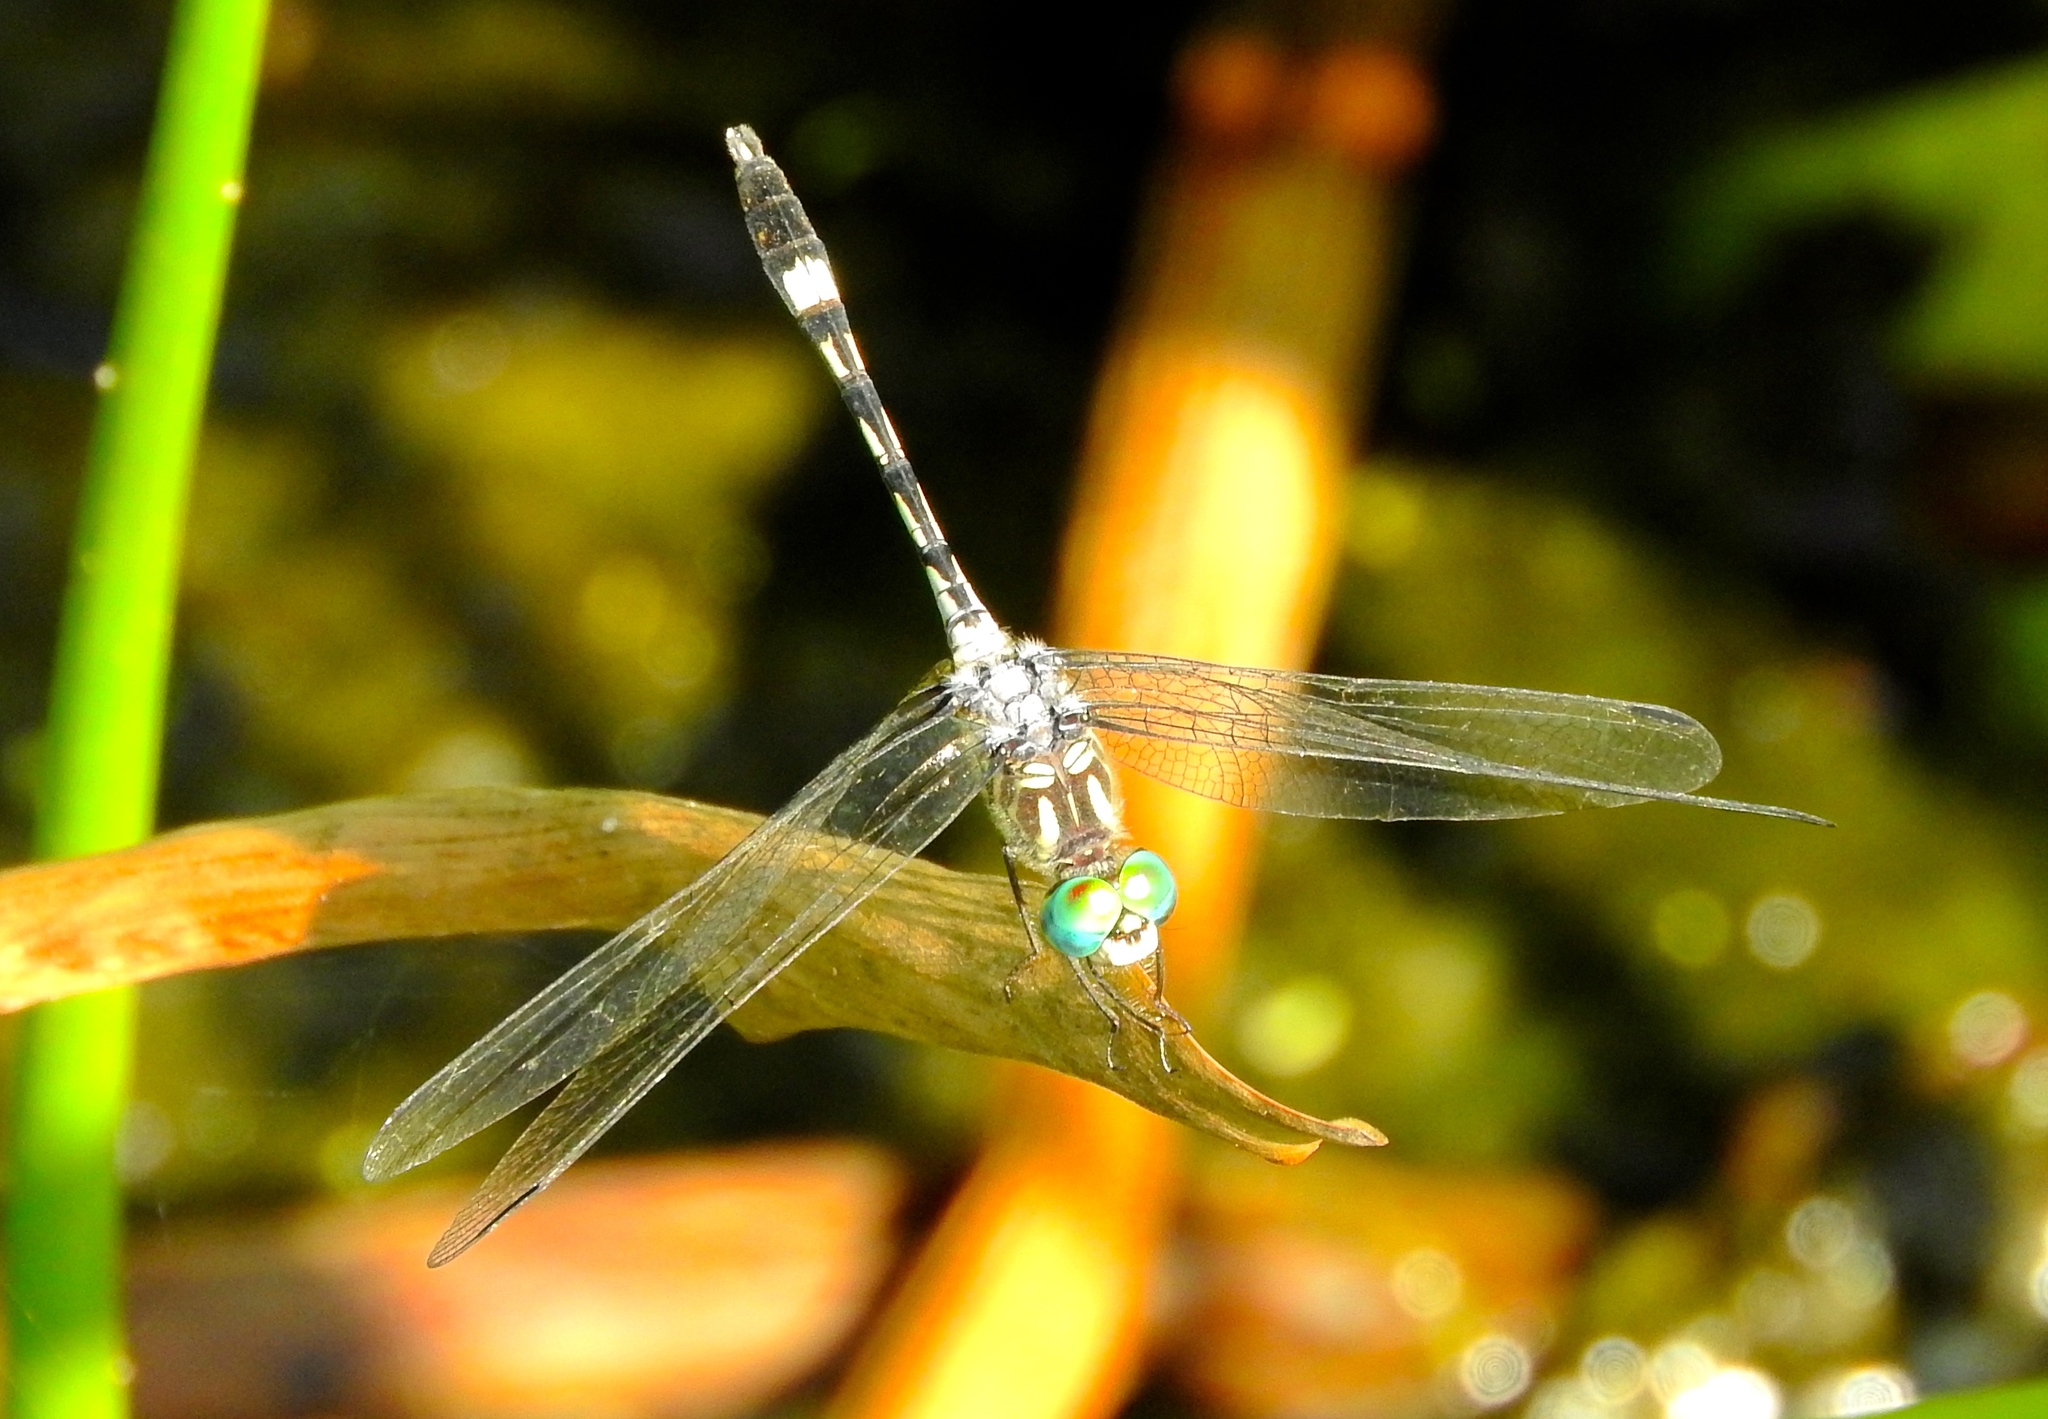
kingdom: Animalia
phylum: Arthropoda
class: Insecta
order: Odonata
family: Libellulidae
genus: Micrathyria
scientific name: Micrathyria hagenii
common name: Thornbush dasher
